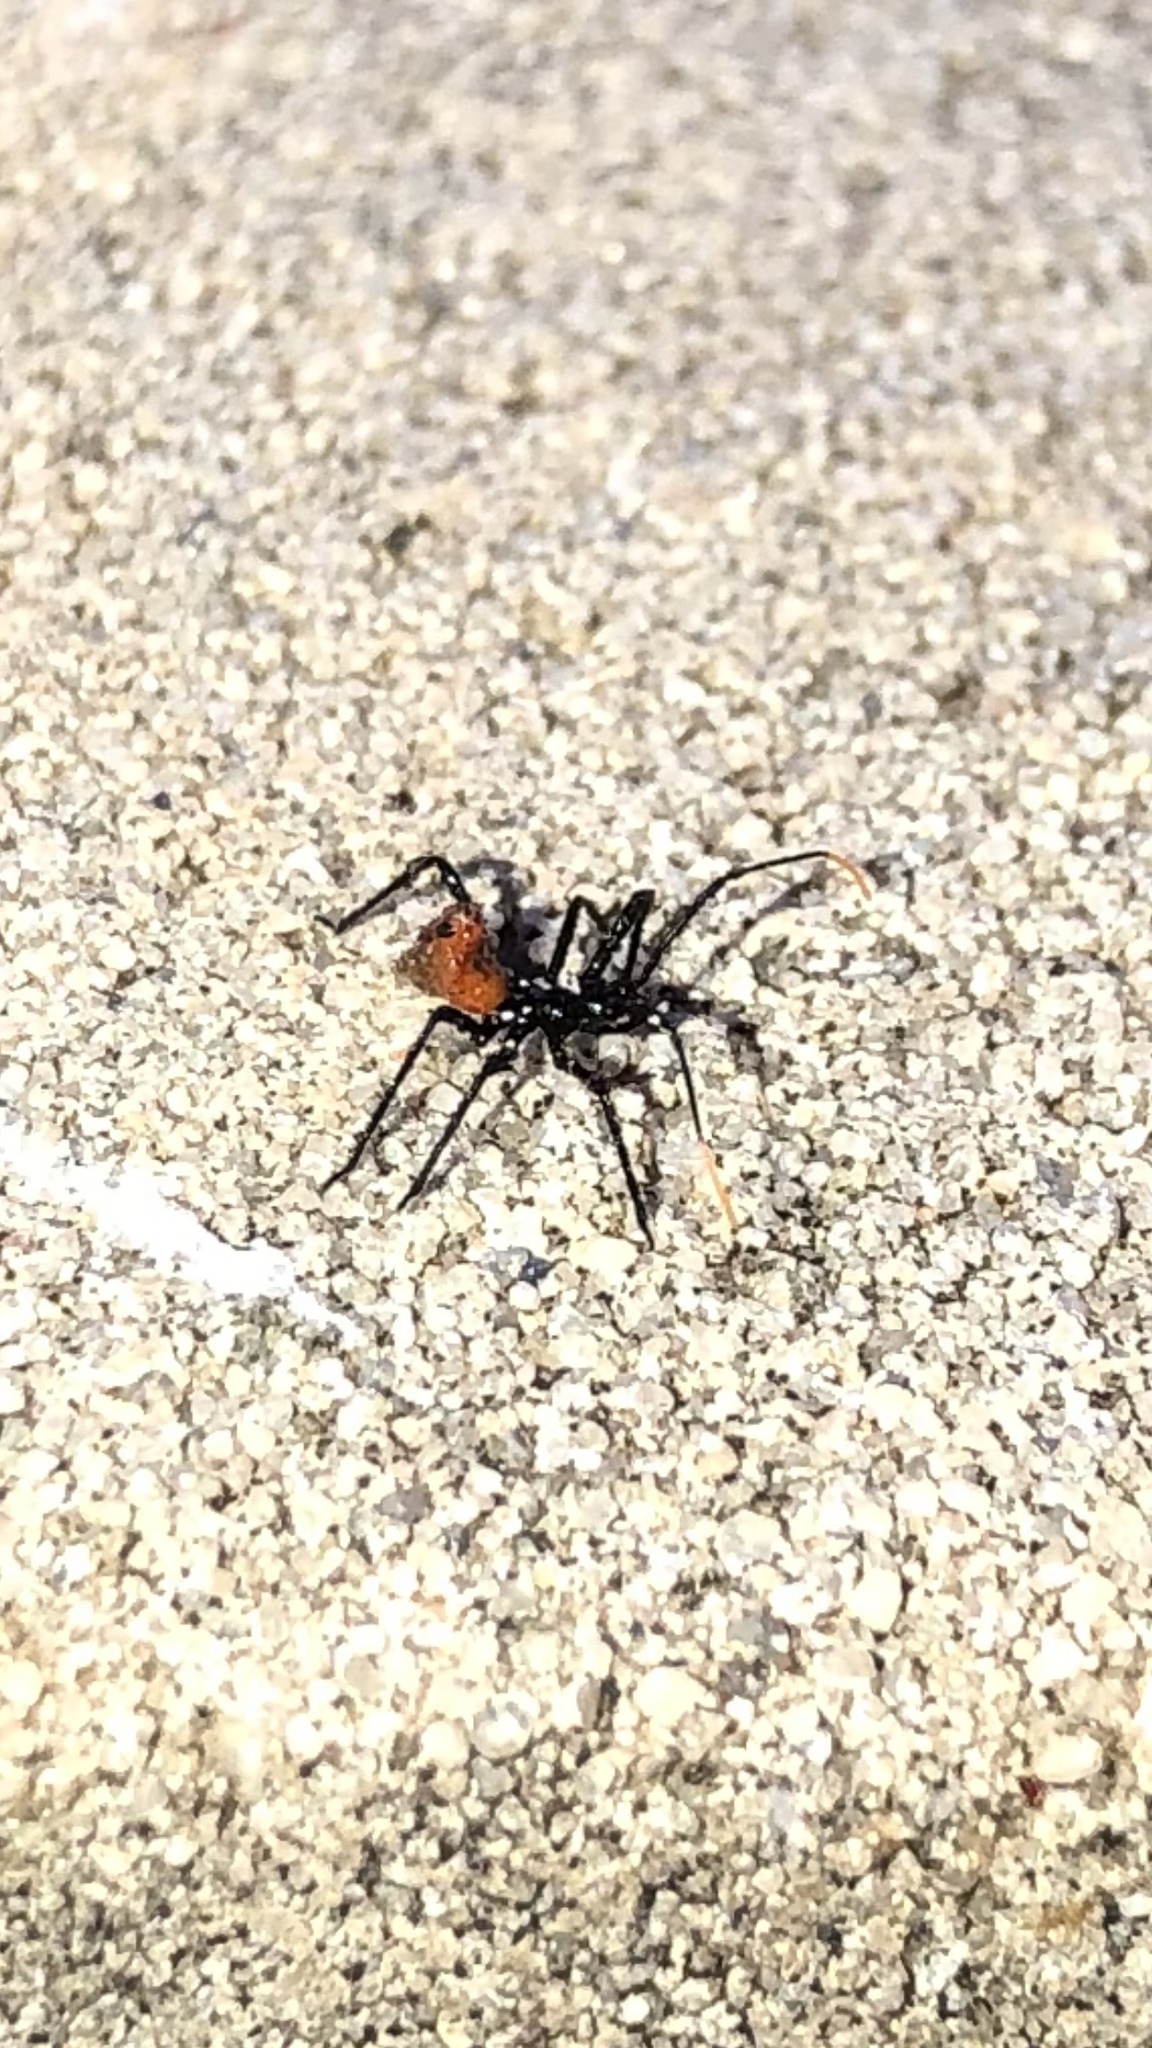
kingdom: Animalia
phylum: Arthropoda
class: Insecta
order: Hemiptera
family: Reduviidae
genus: Arilus
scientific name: Arilus cristatus
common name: North american wheel bug
